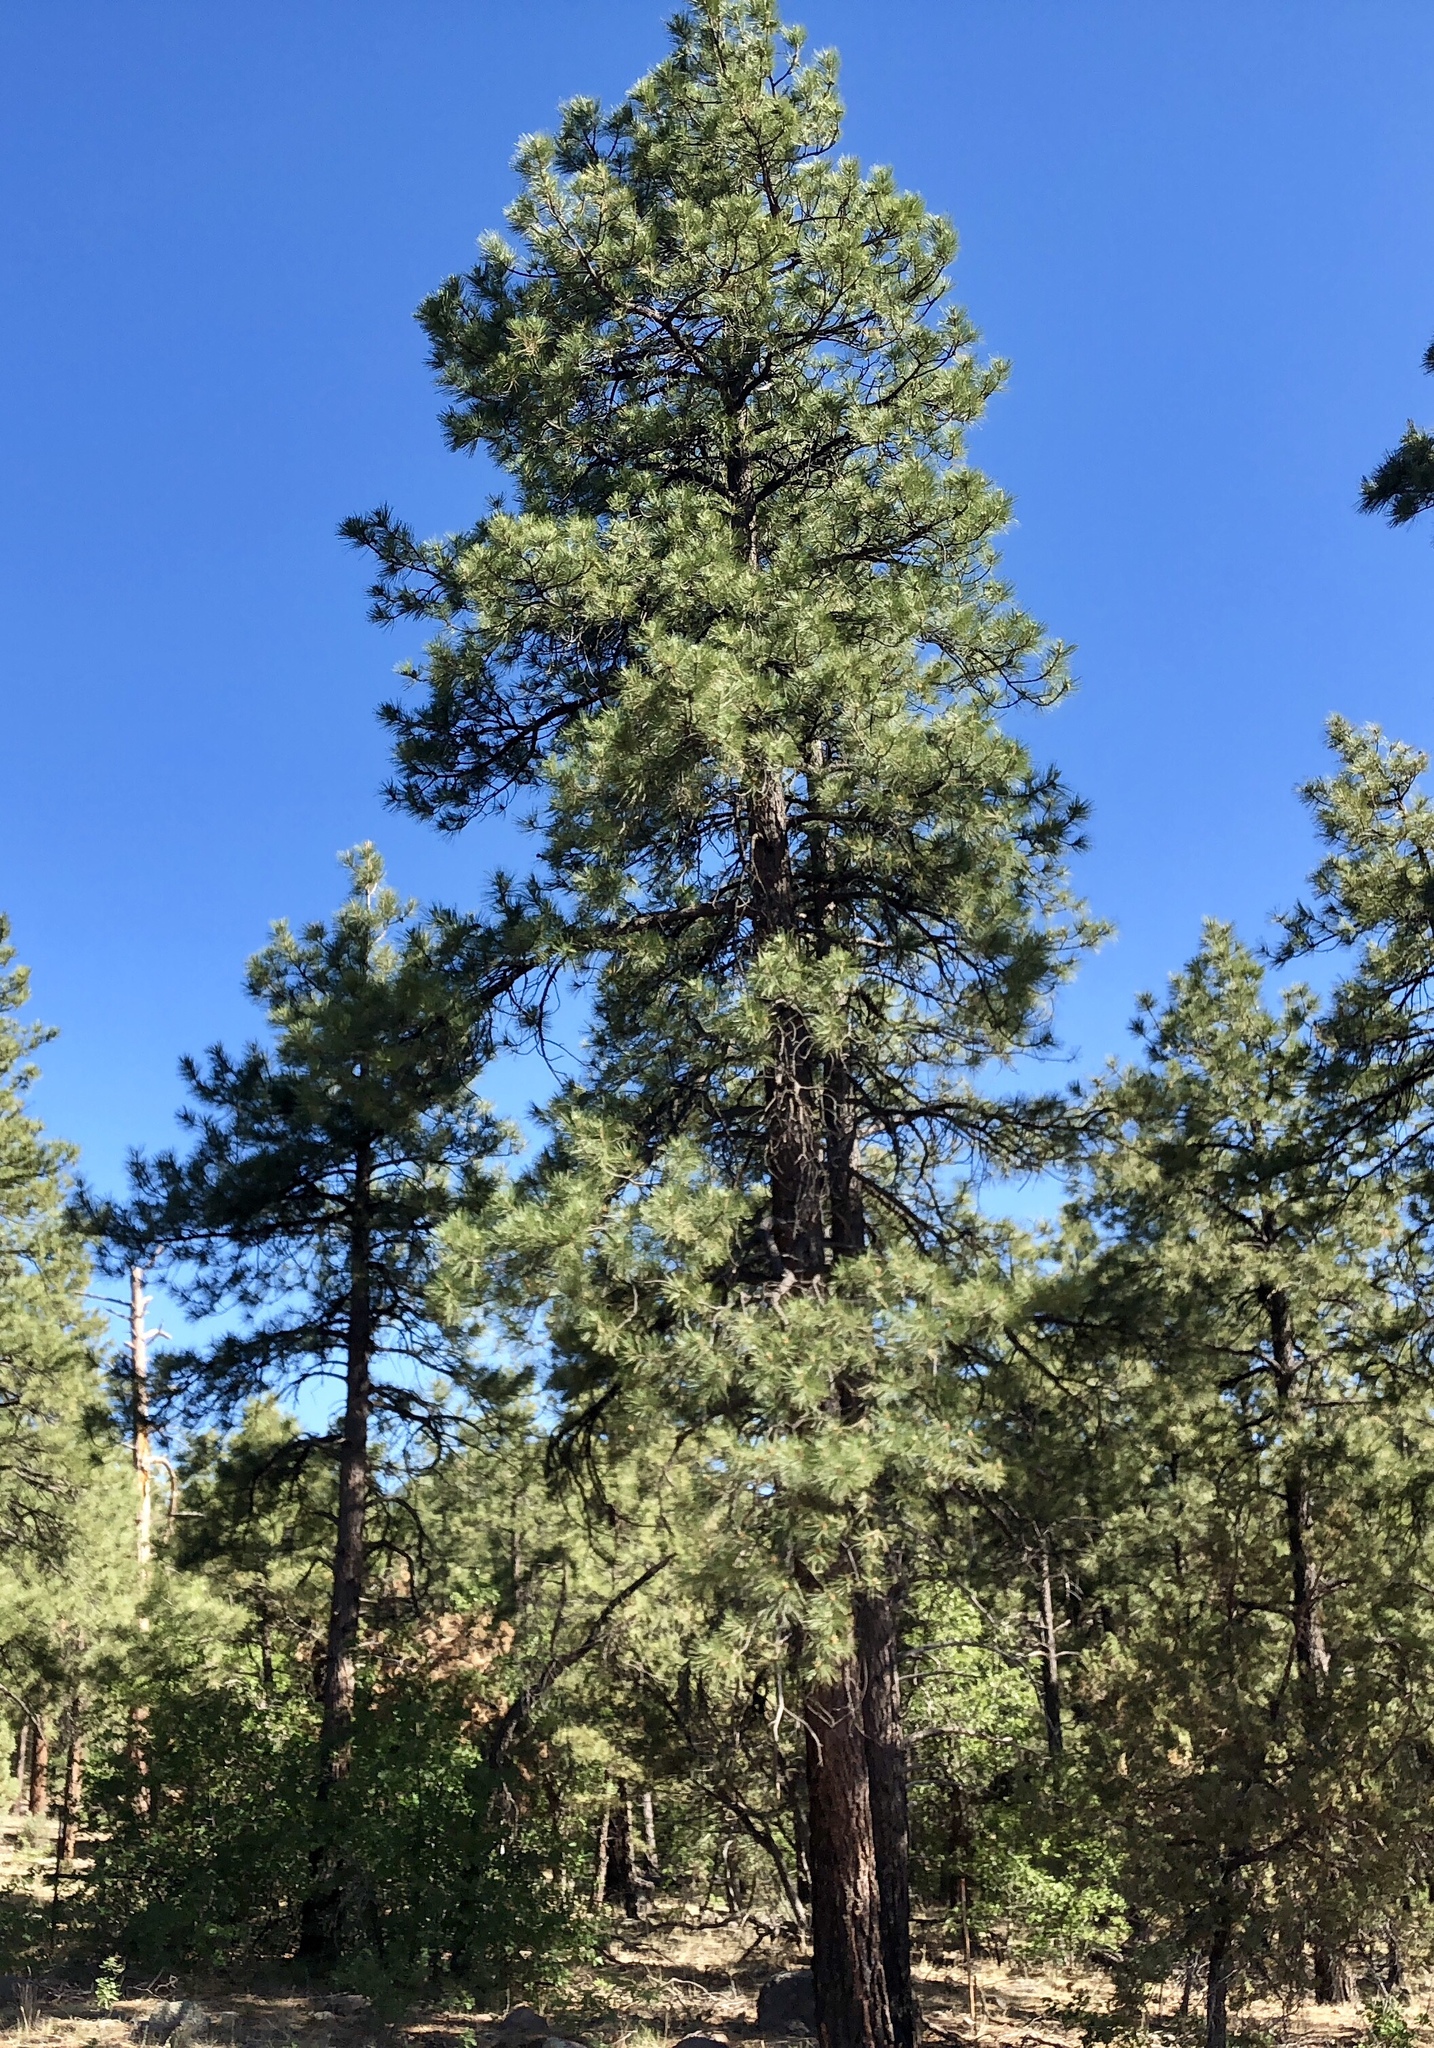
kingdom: Plantae
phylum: Tracheophyta
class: Pinopsida
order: Pinales
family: Pinaceae
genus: Pinus
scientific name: Pinus ponderosa
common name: Western yellow-pine
